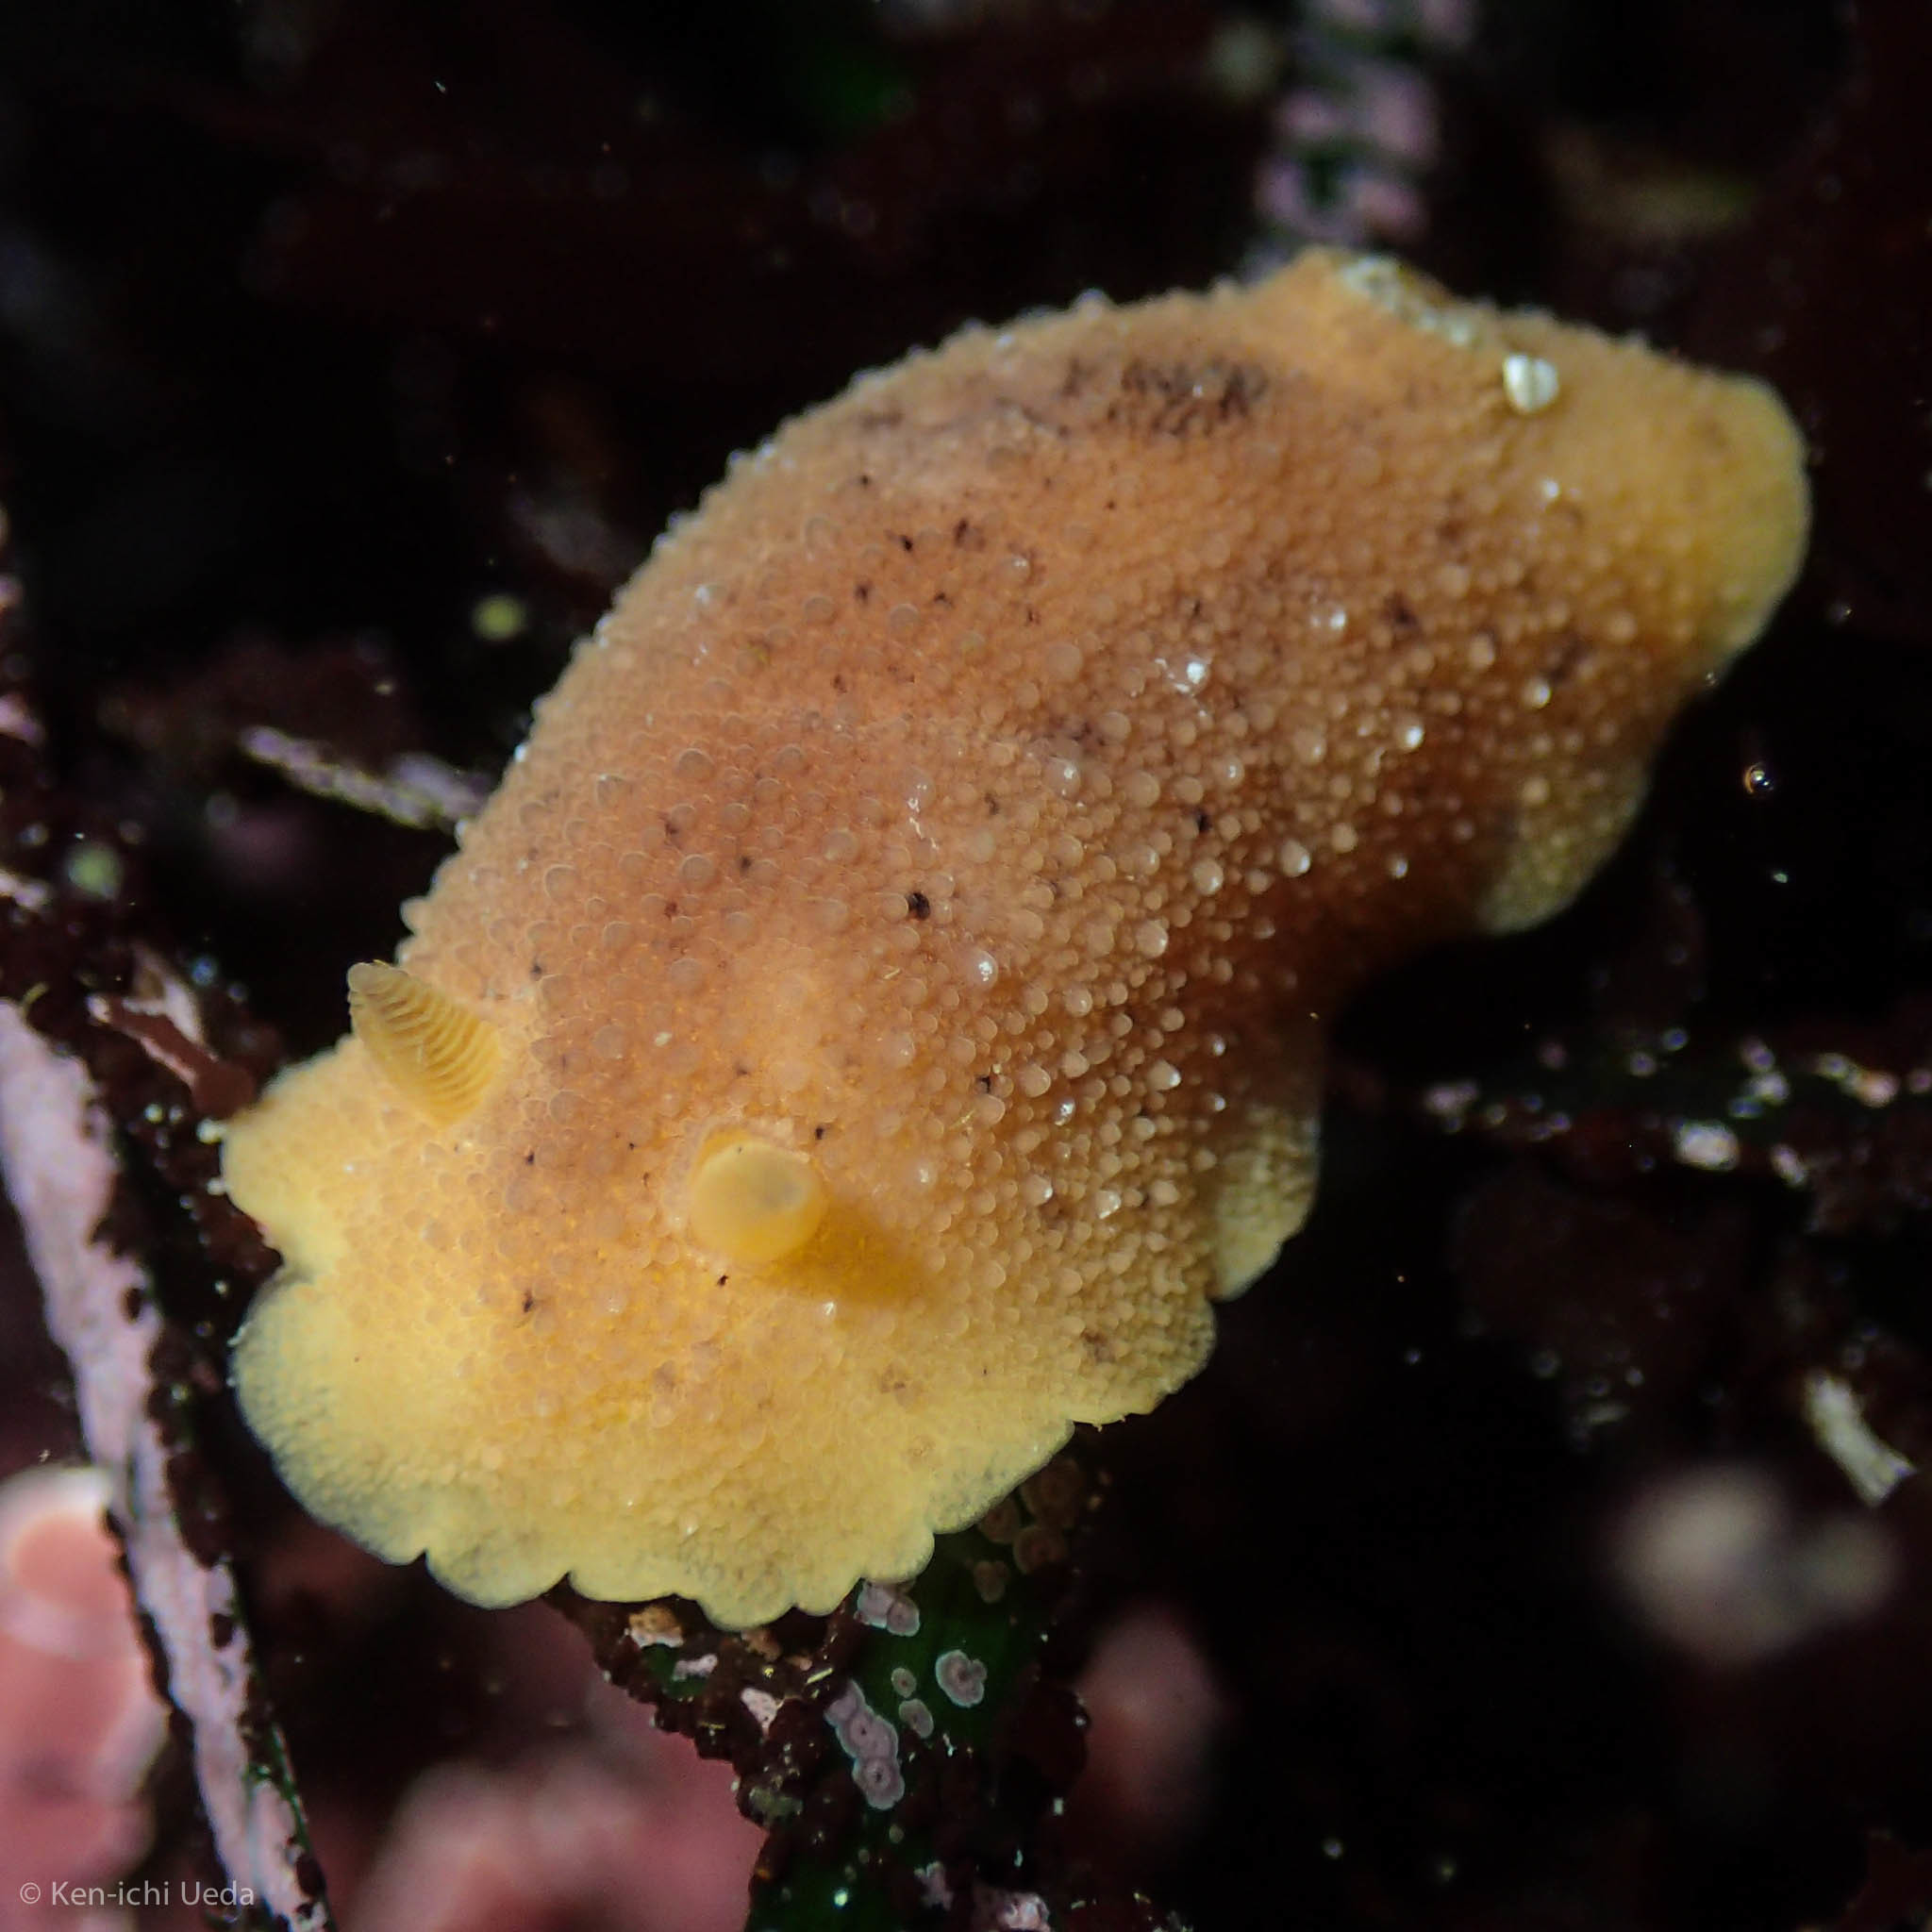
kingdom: Animalia
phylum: Mollusca
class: Gastropoda
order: Nudibranchia
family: Discodorididae
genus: Geitodoris
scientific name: Geitodoris heathi
